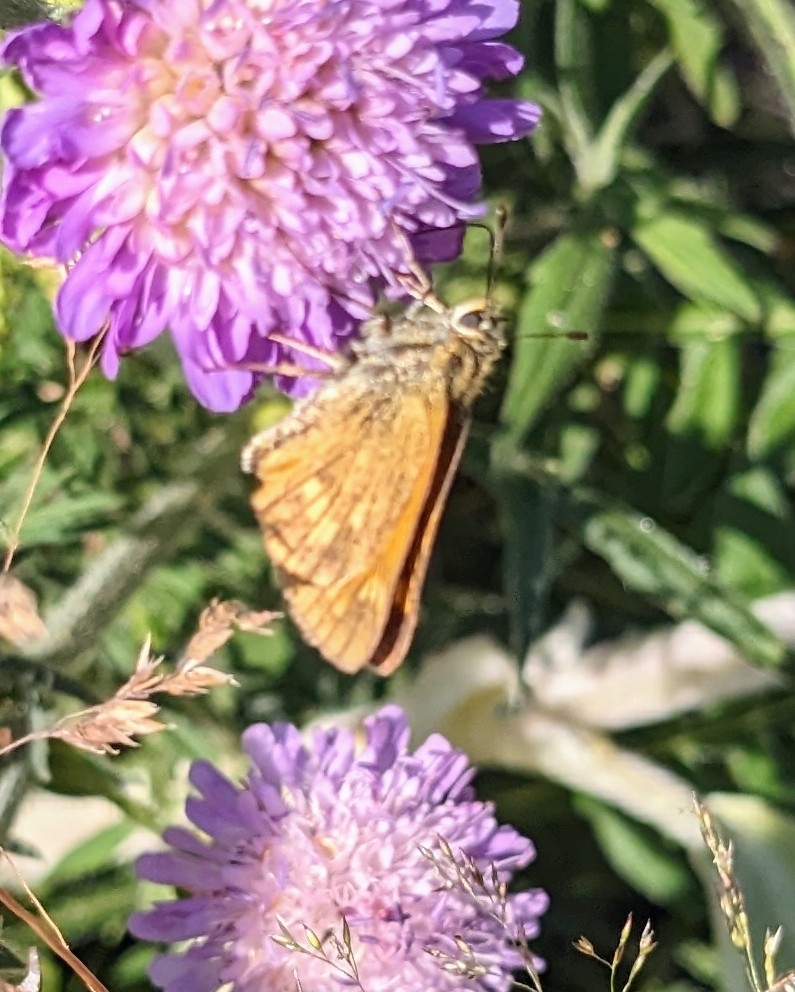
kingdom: Animalia
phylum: Arthropoda
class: Insecta
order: Lepidoptera
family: Hesperiidae
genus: Ochlodes
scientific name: Ochlodes venata
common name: Large skipper
